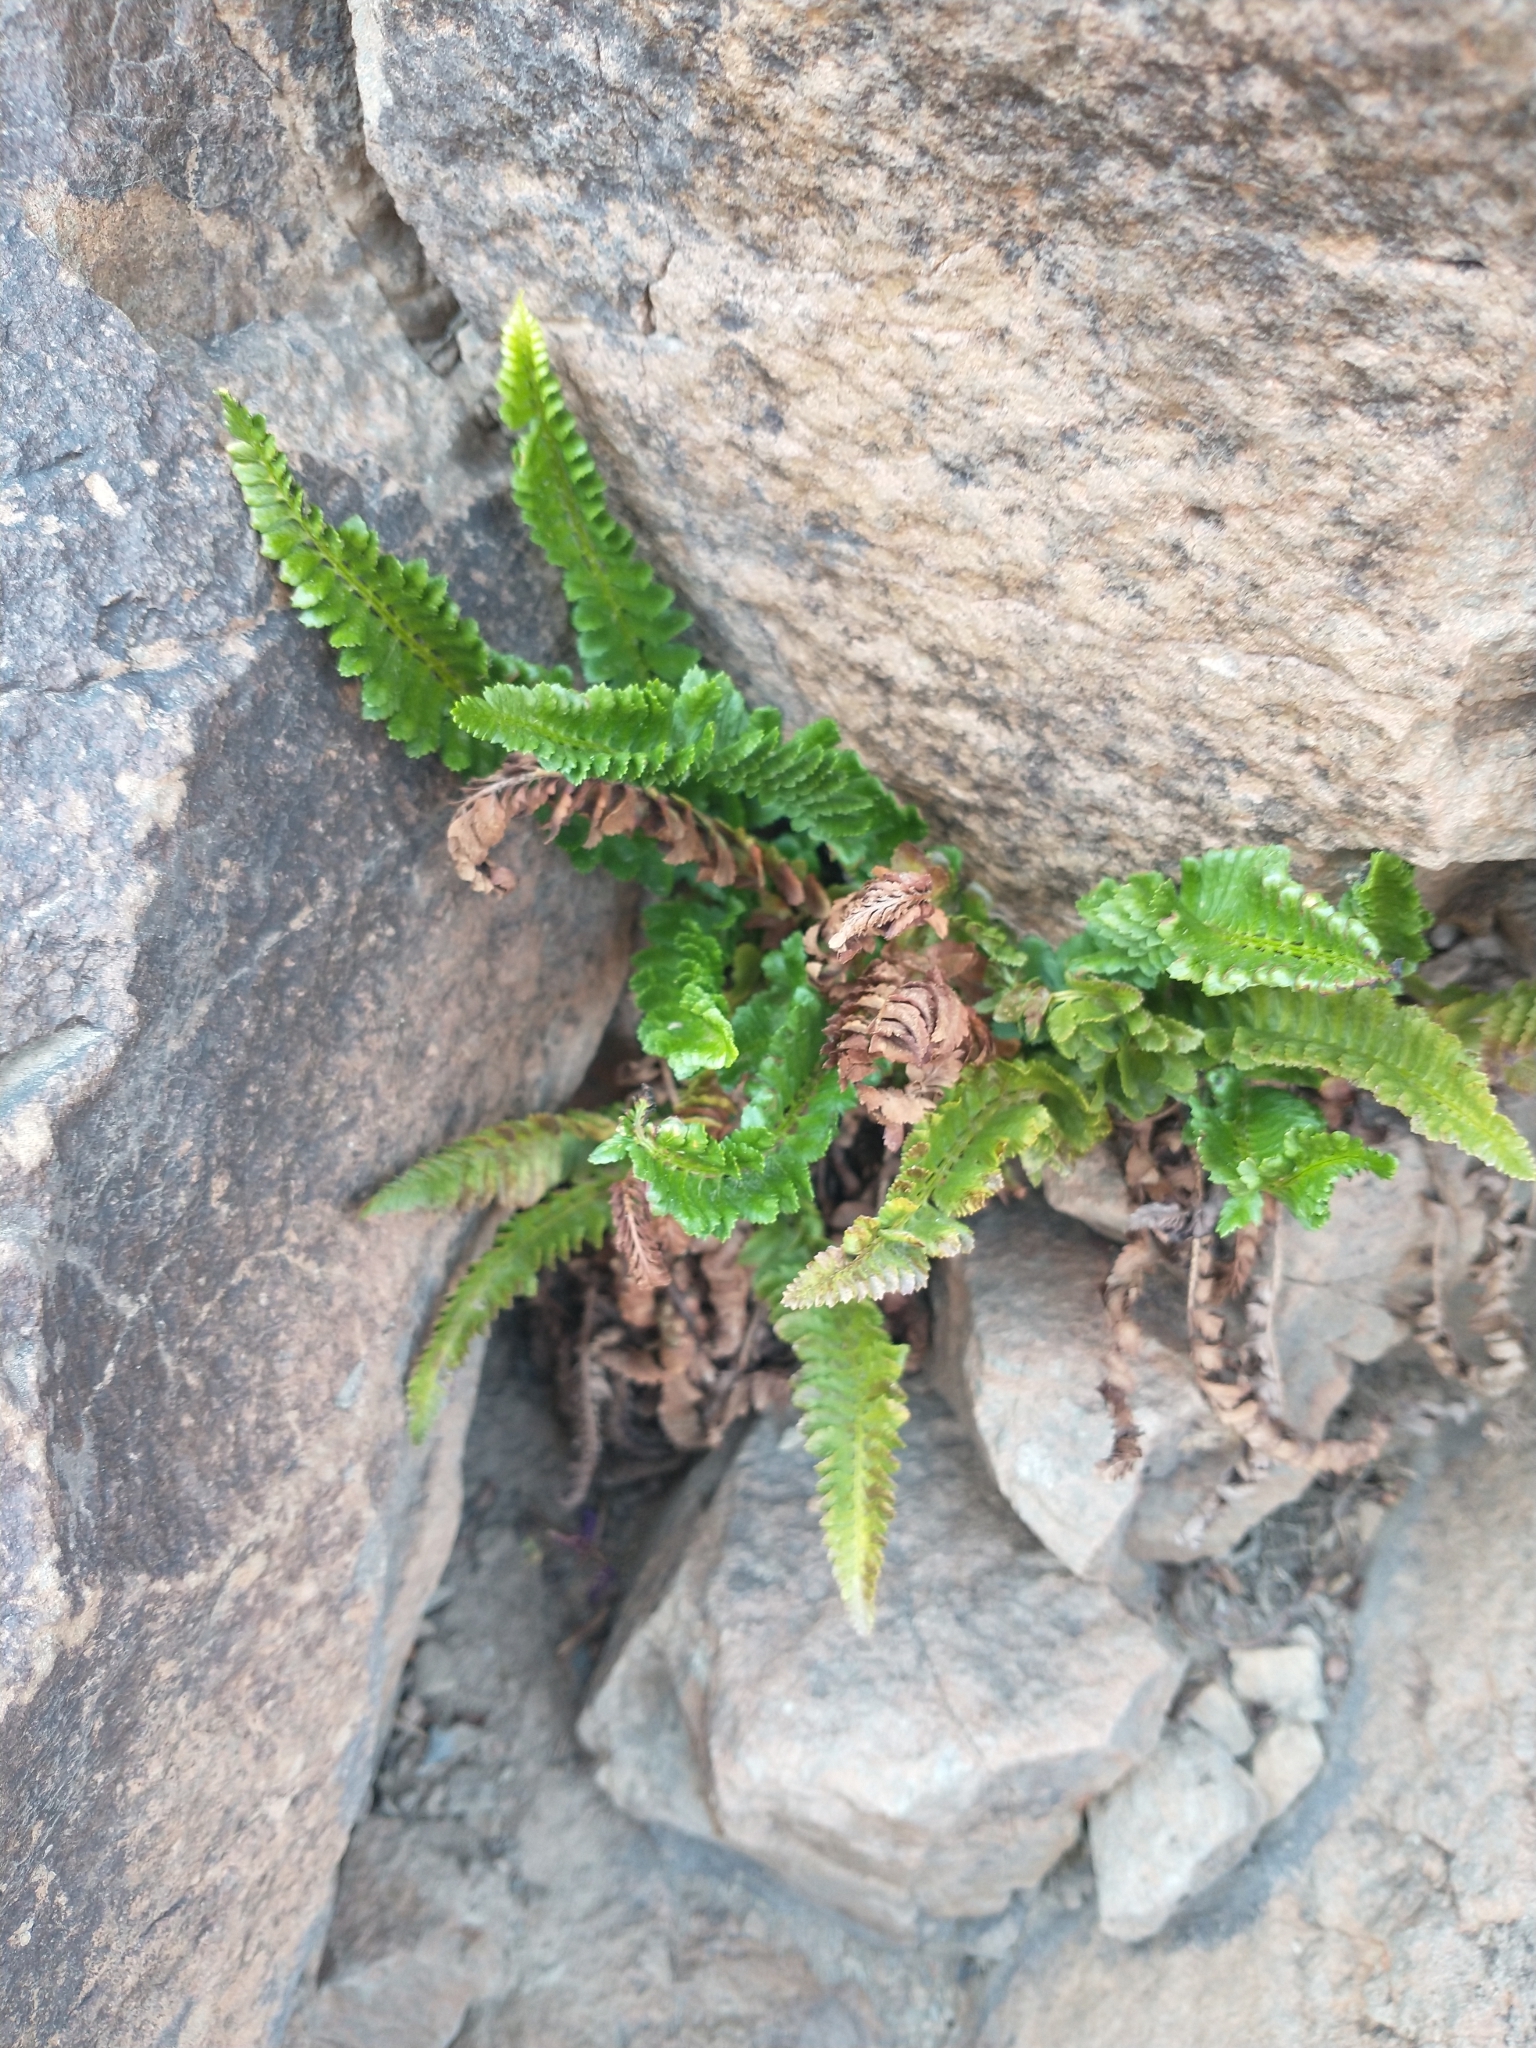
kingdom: Plantae
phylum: Tracheophyta
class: Polypodiopsida
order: Polypodiales
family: Dryopteridaceae
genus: Polystichum
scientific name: Polystichum kruckebergii
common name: Kruckeberg's holly fern
